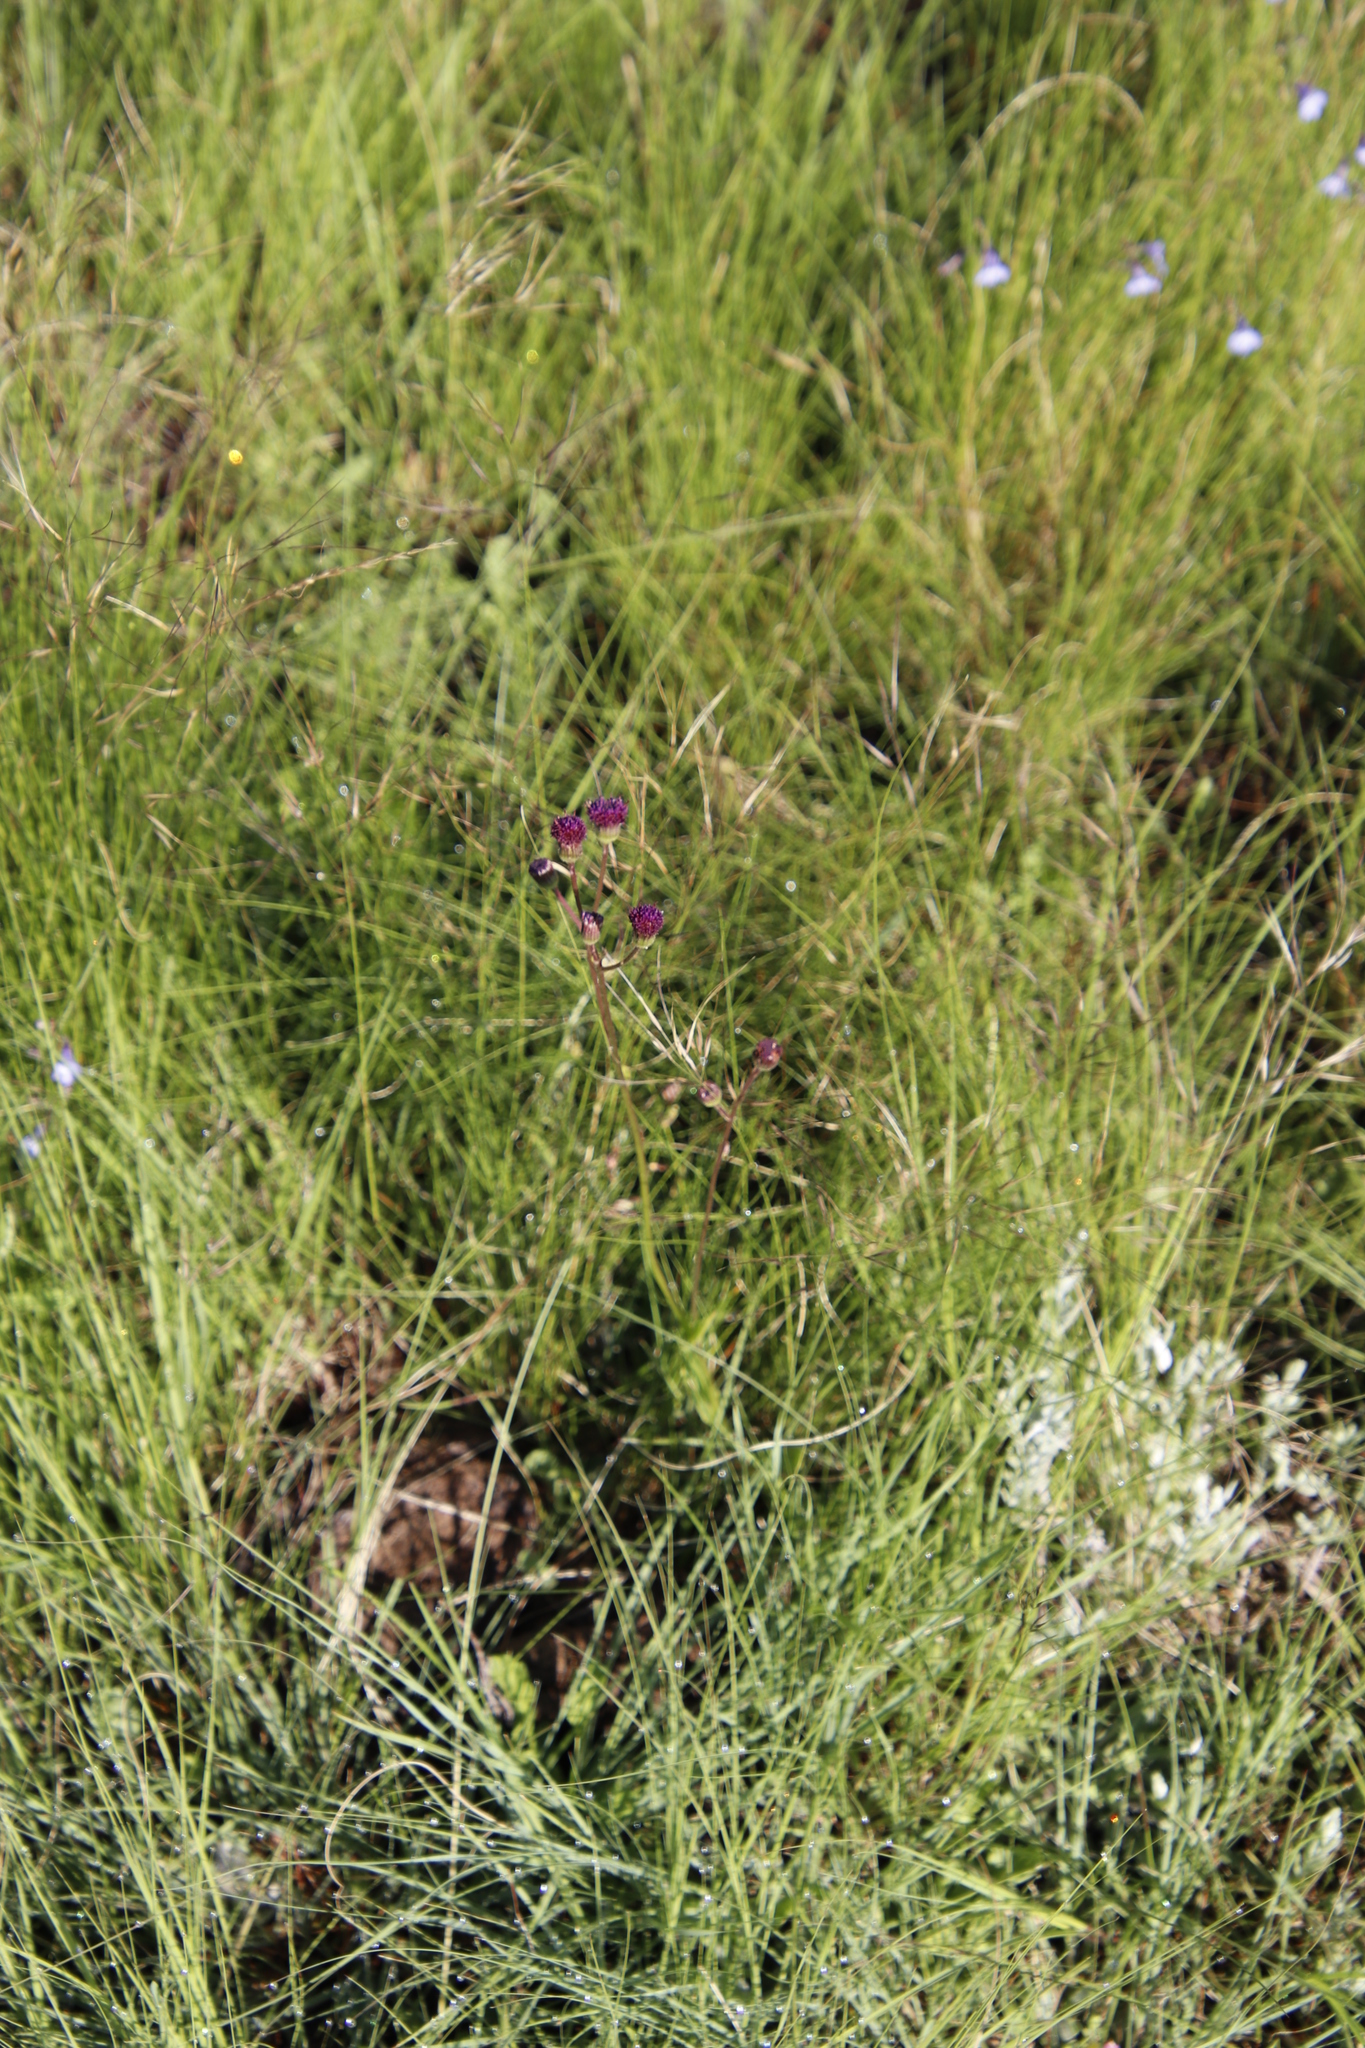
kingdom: Plantae
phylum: Tracheophyta
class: Magnoliopsida
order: Asterales
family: Asteraceae
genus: Senecio
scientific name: Senecio erubescens
